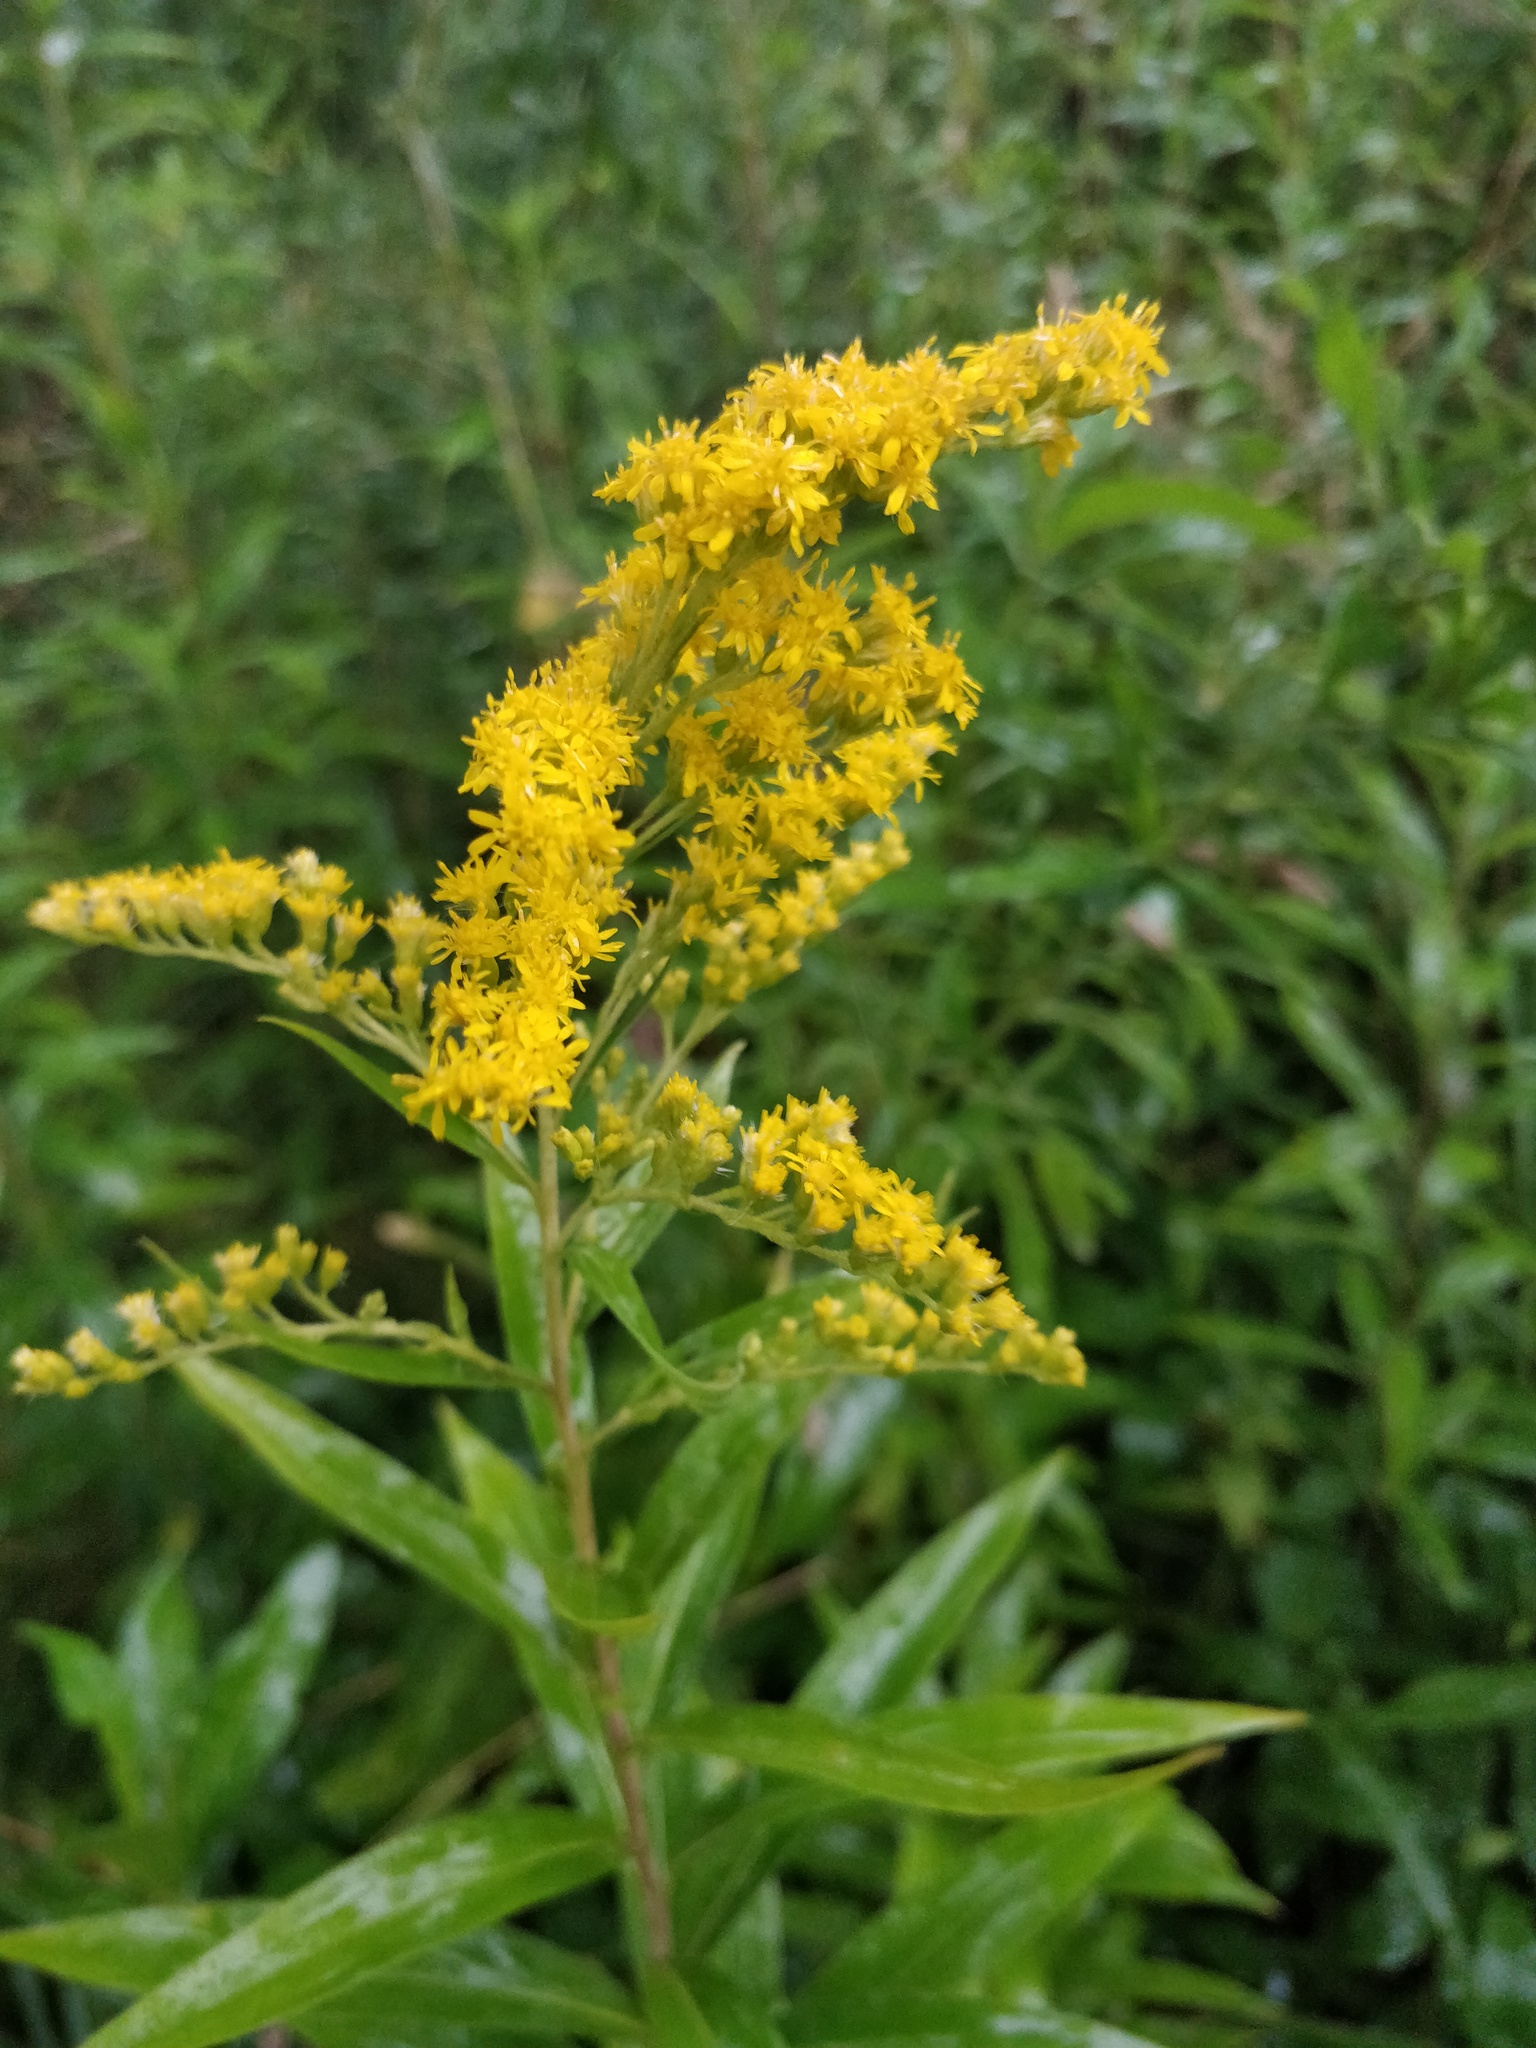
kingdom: Plantae
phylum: Tracheophyta
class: Magnoliopsida
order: Asterales
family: Asteraceae
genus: Solidago
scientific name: Solidago gigantea
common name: Giant goldenrod
